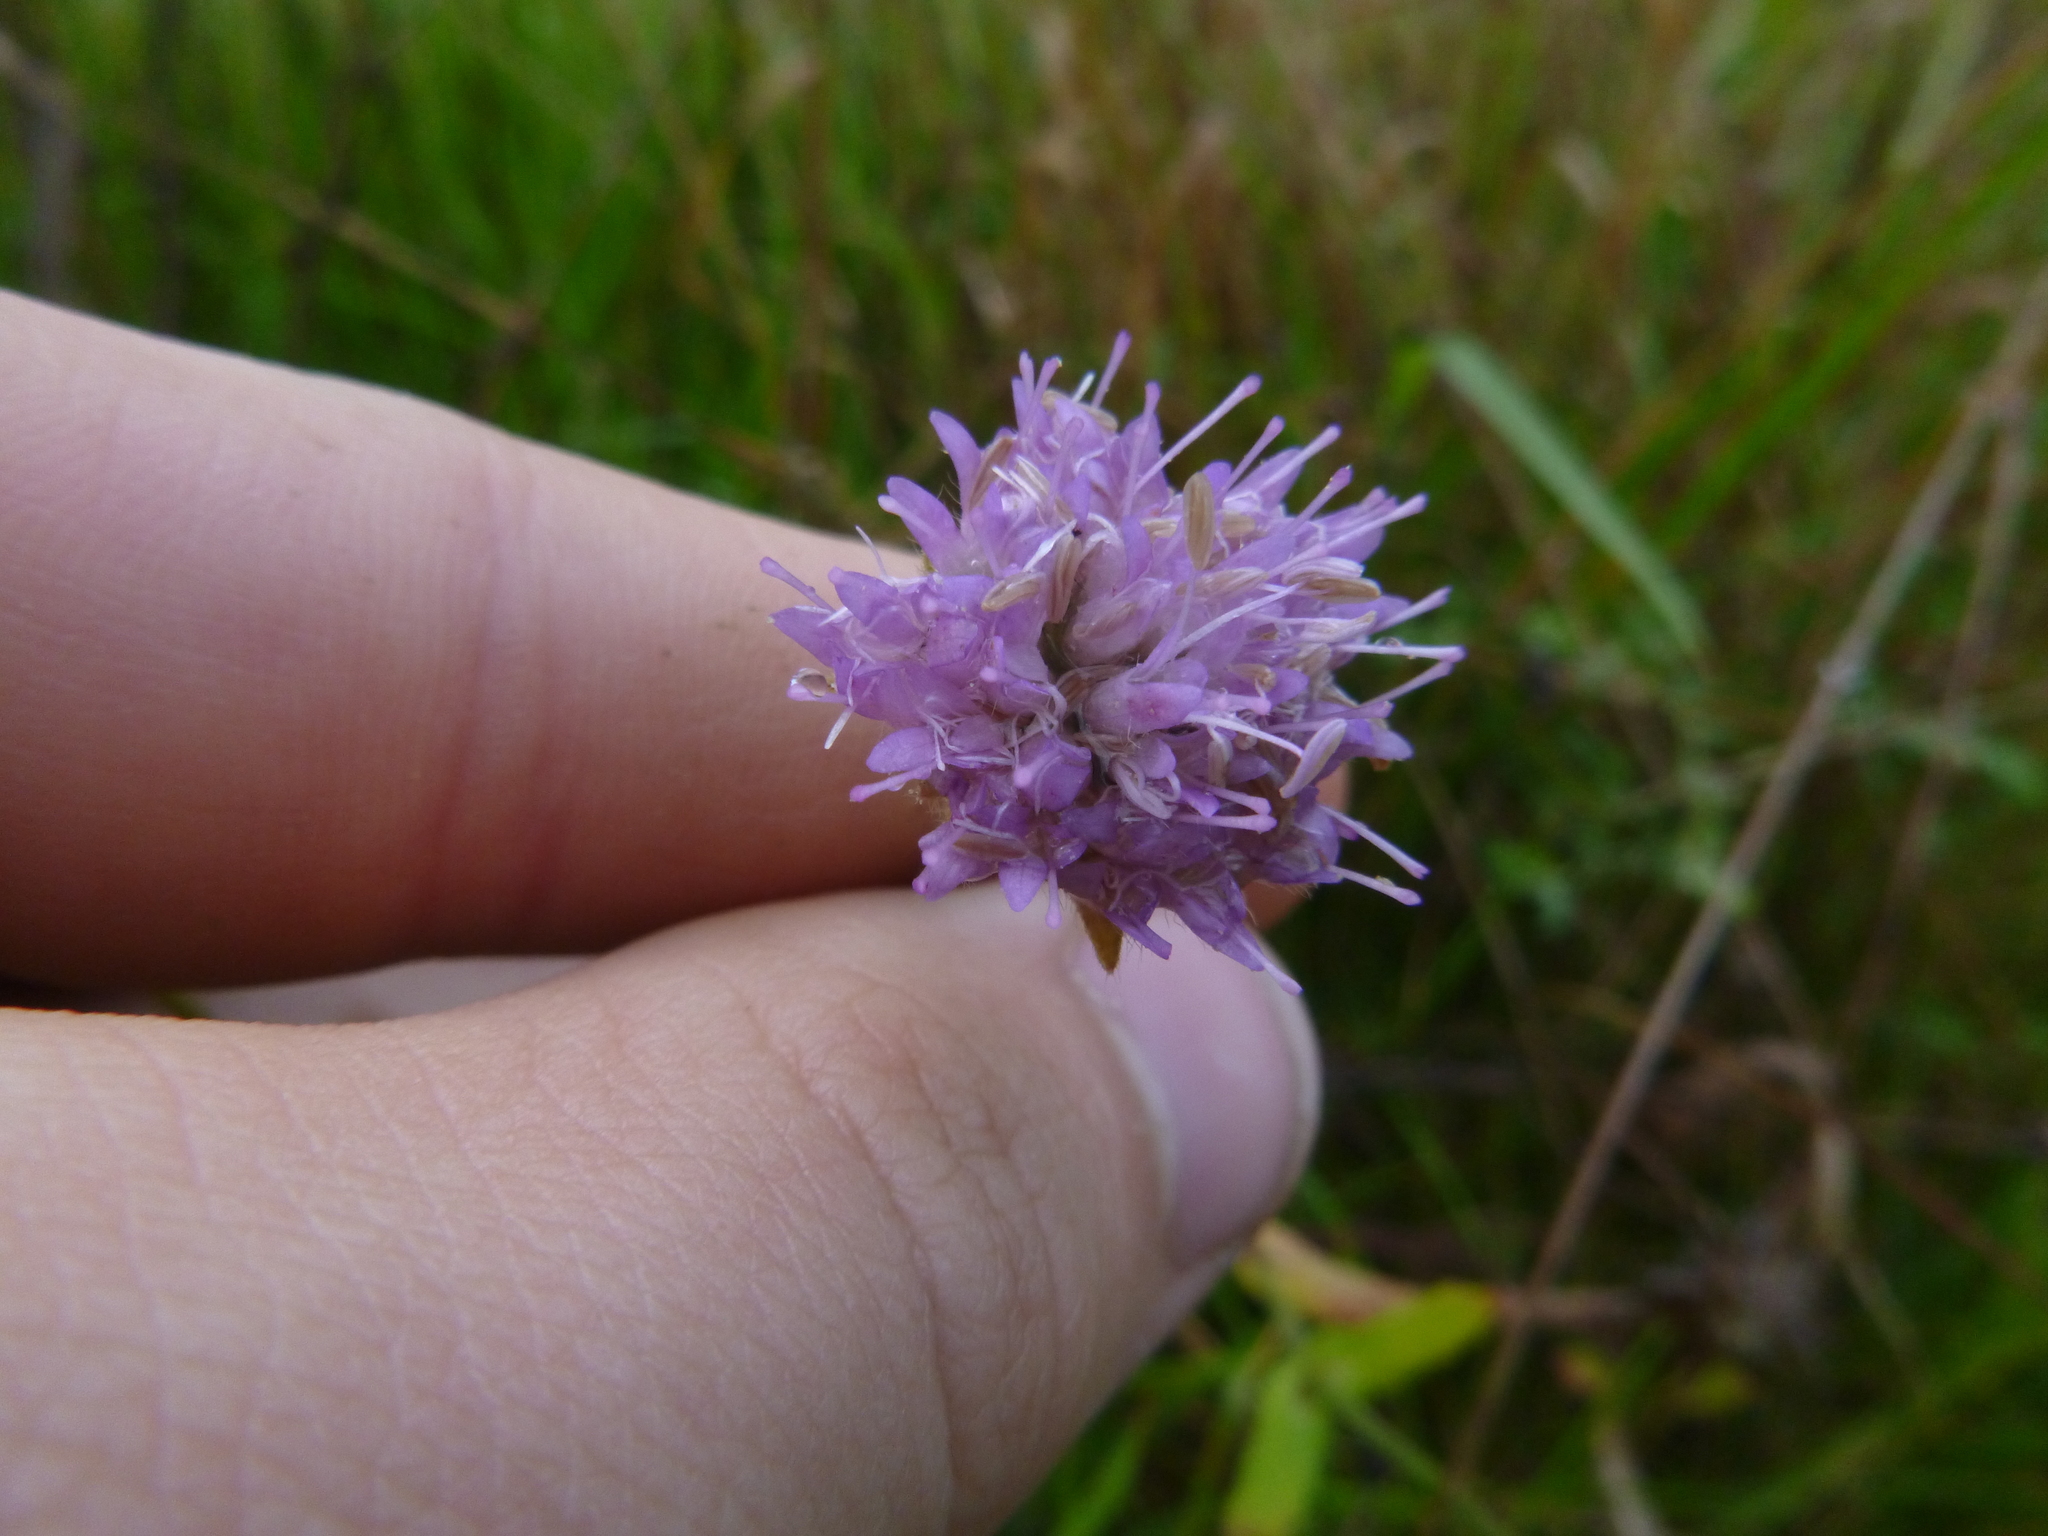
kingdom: Plantae
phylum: Tracheophyta
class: Magnoliopsida
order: Dipsacales
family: Caprifoliaceae
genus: Knautia
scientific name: Knautia arvensis
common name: Field scabiosa
